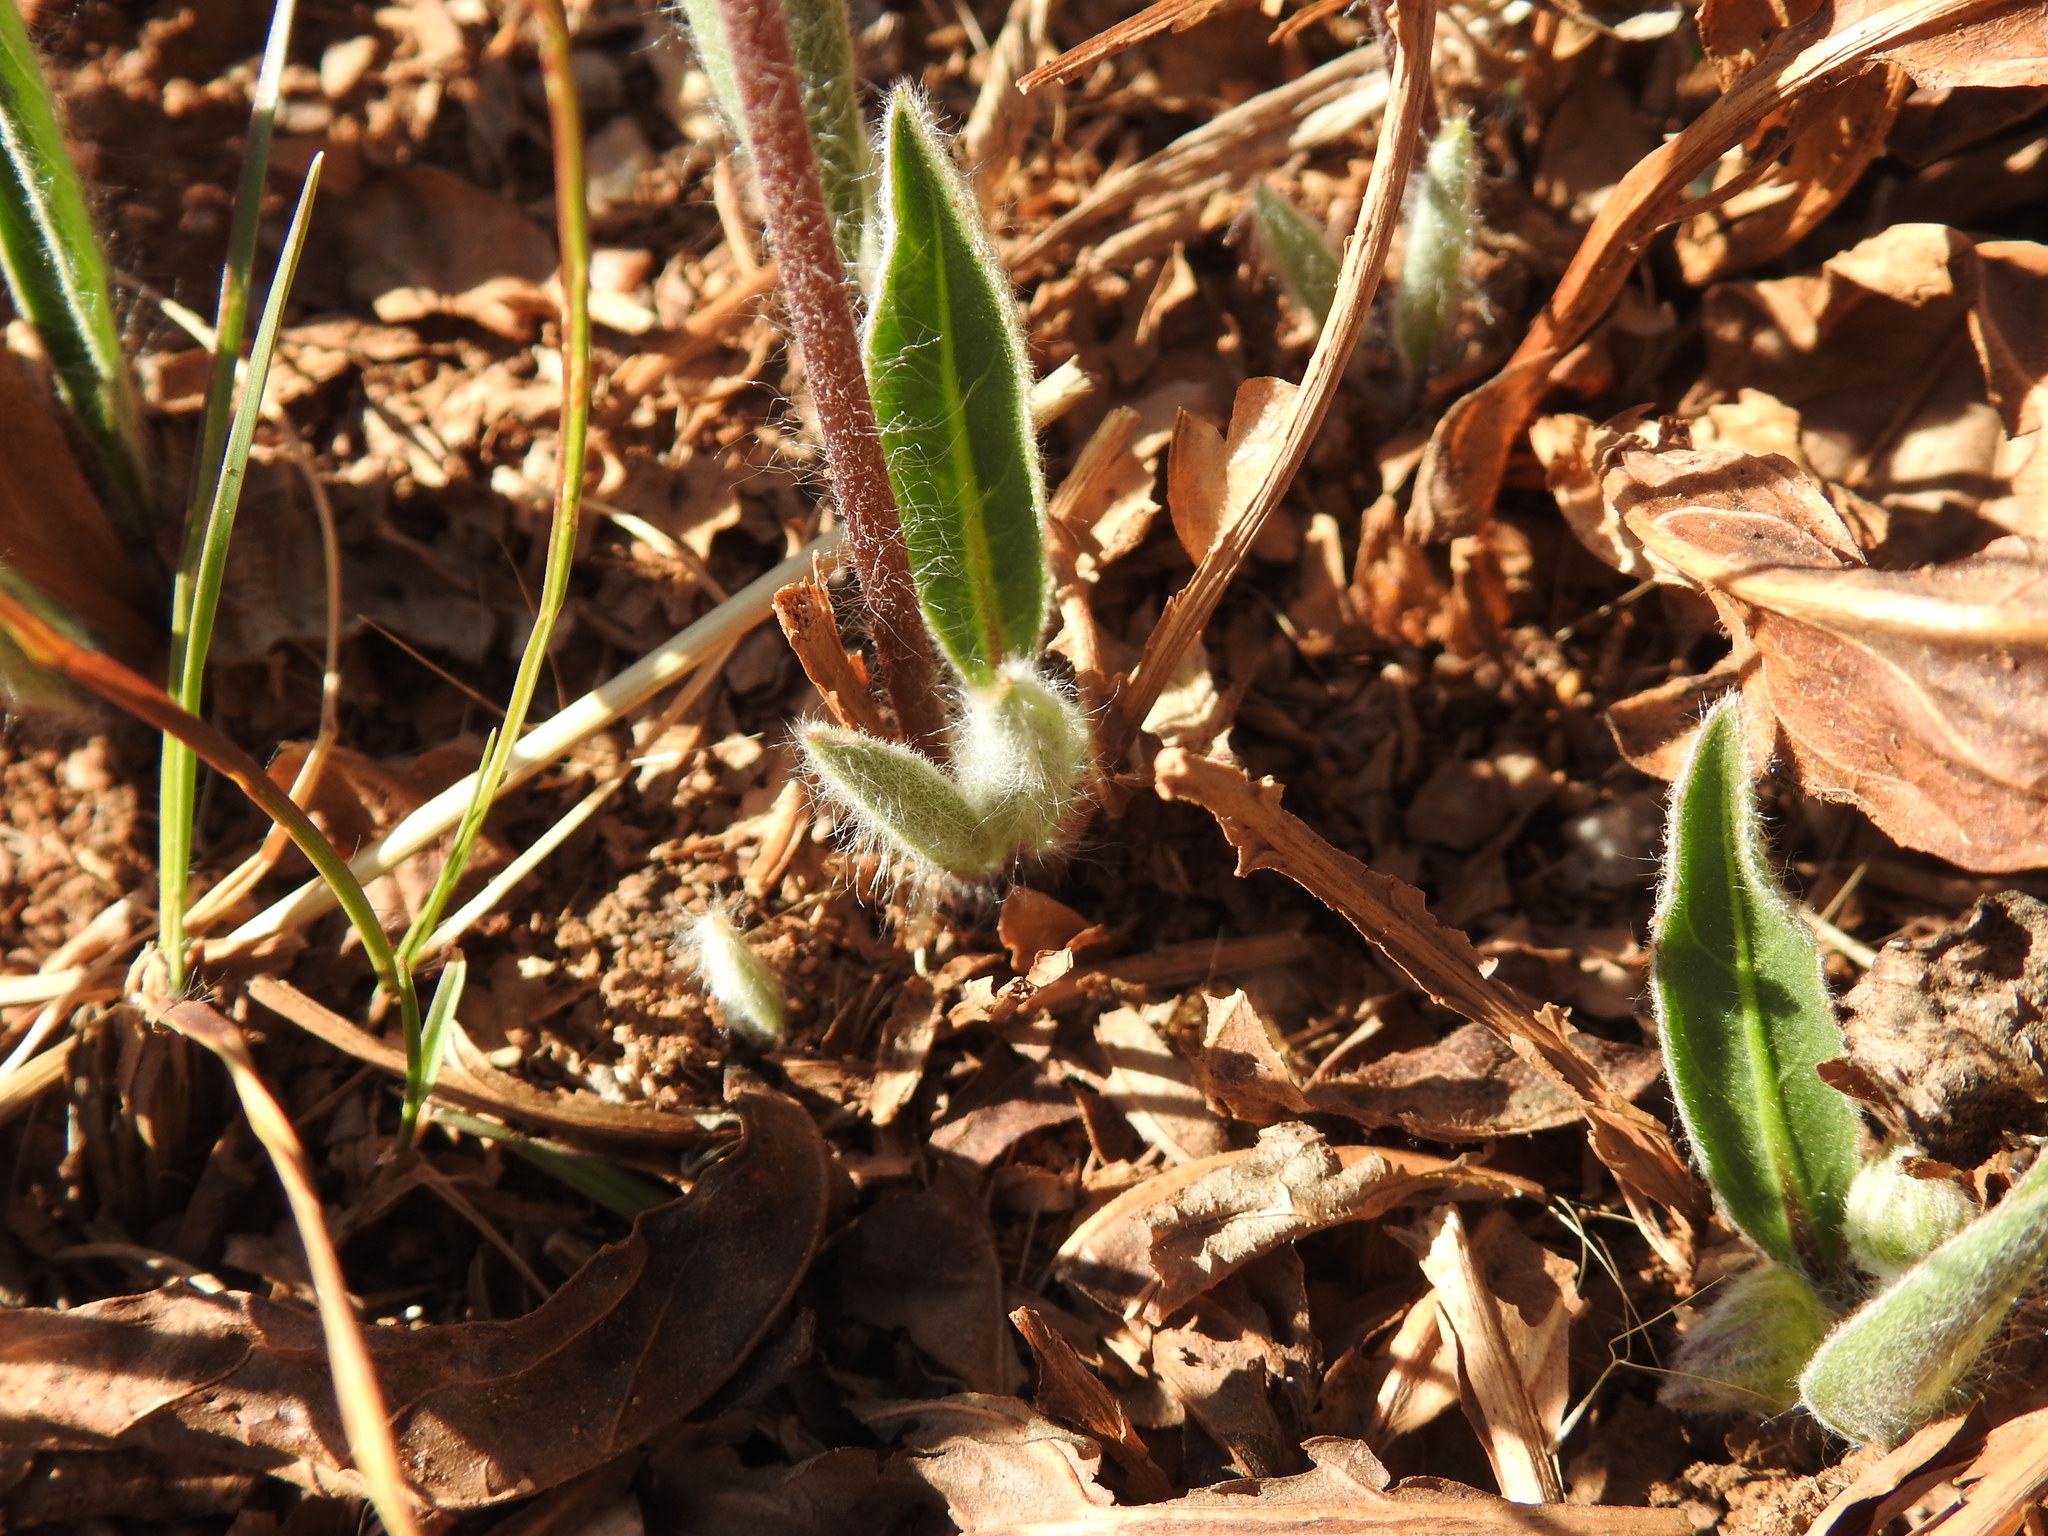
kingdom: Plantae
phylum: Tracheophyta
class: Magnoliopsida
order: Asterales
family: Asteraceae
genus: Gerbera
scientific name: Gerbera viridifolia
